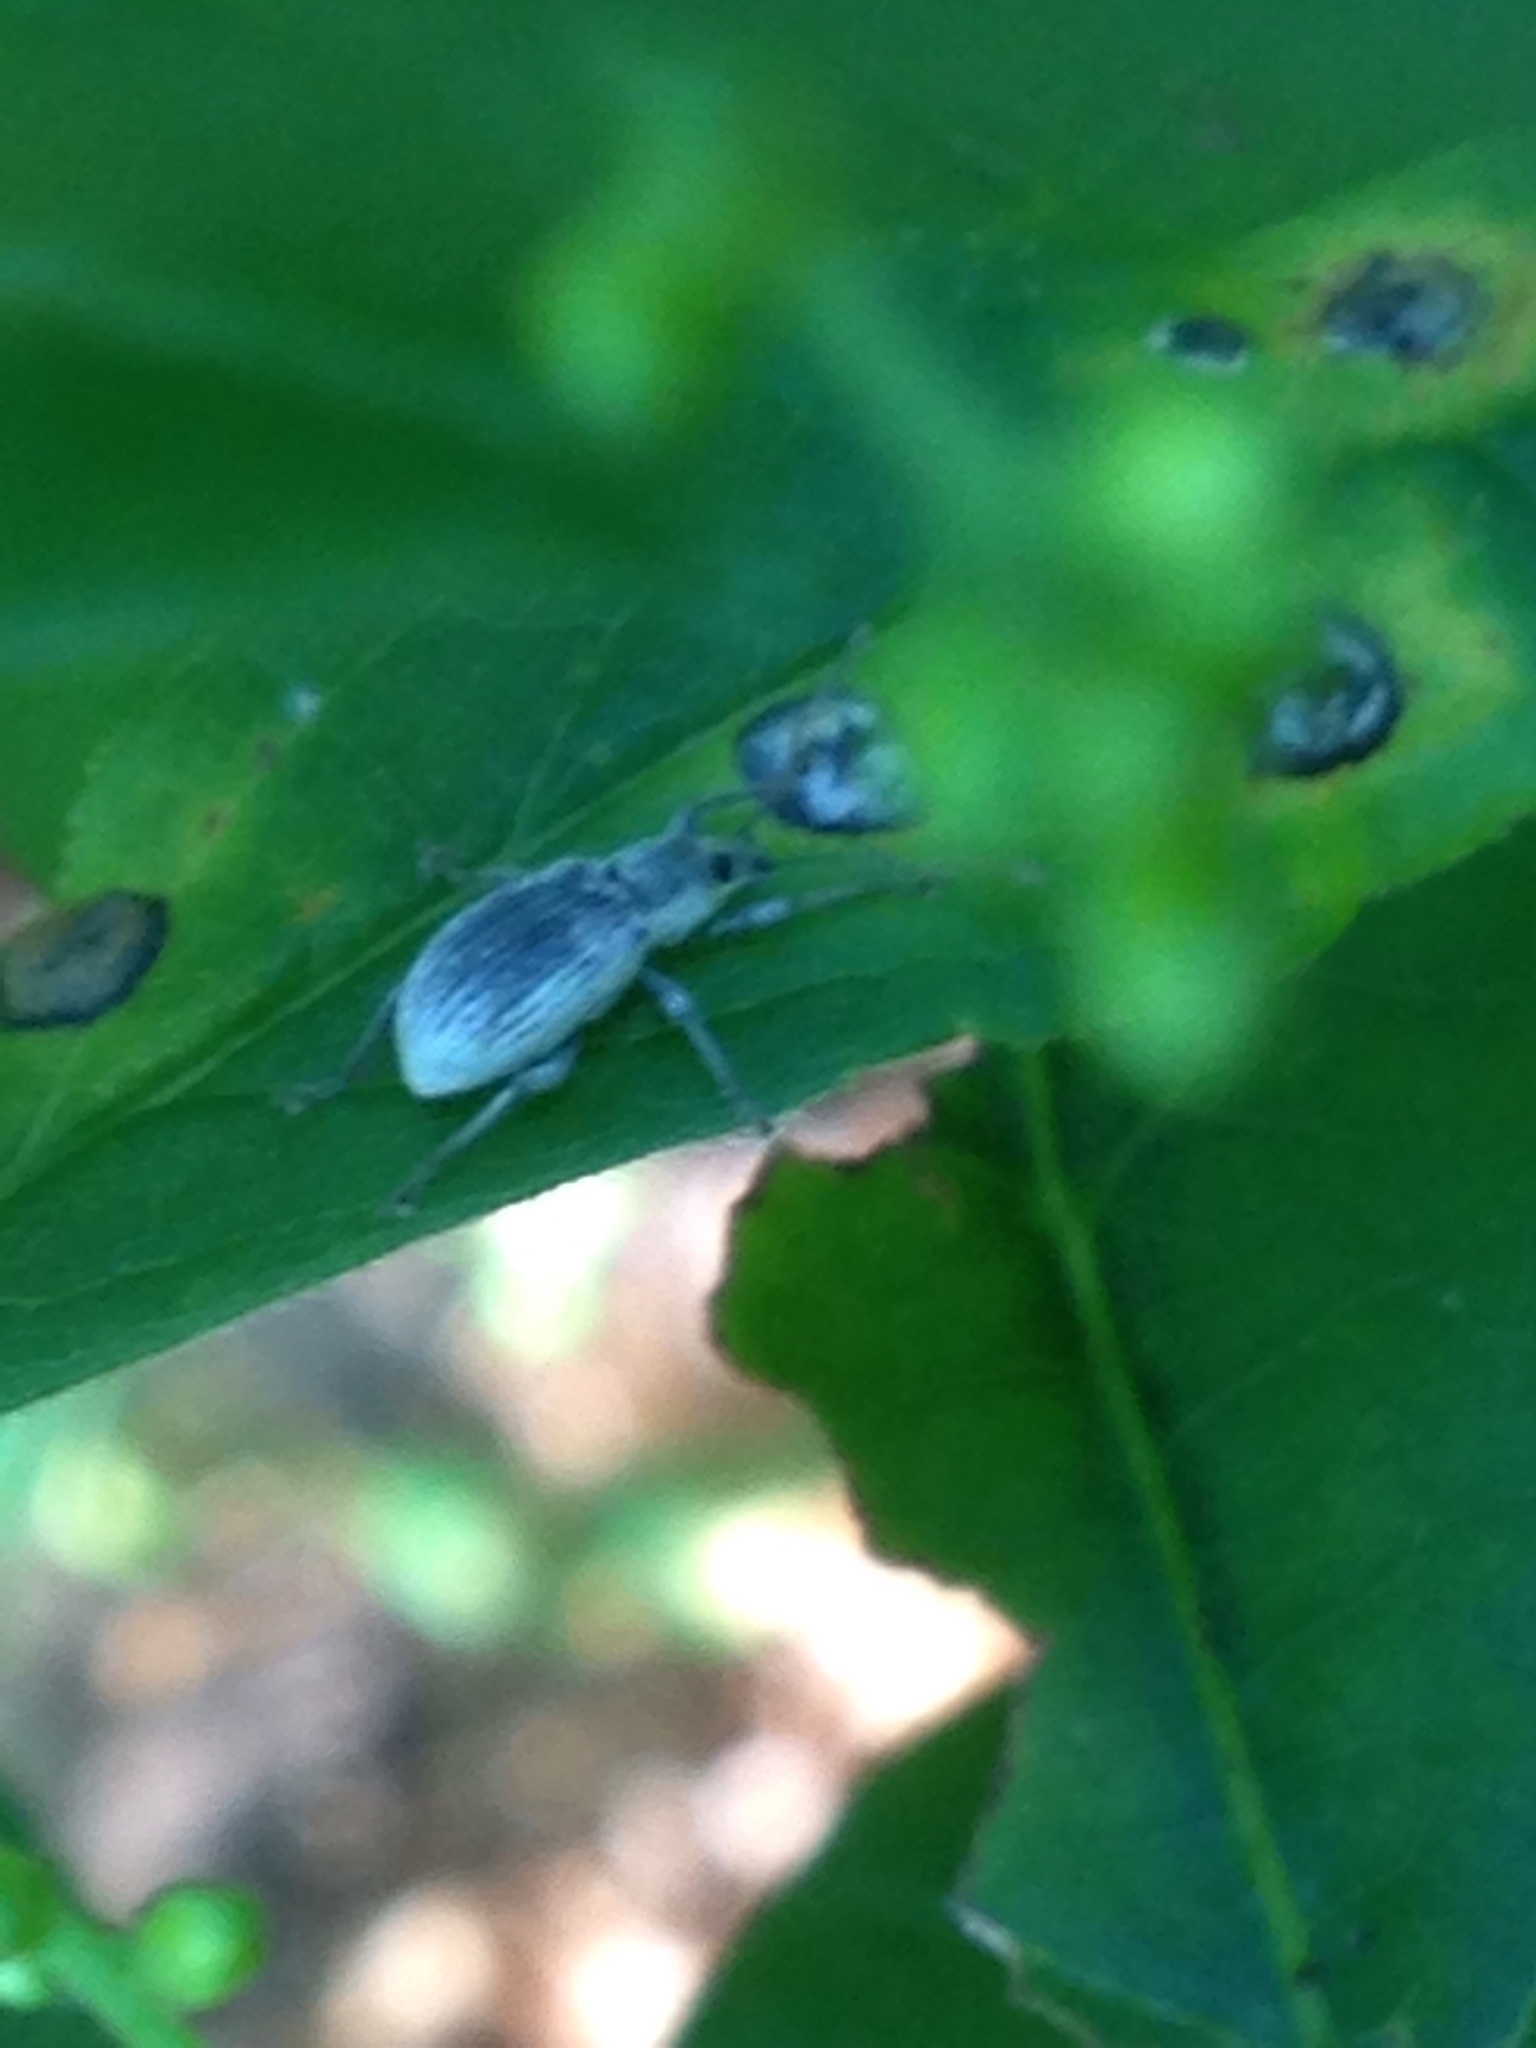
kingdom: Animalia
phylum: Arthropoda
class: Insecta
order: Coleoptera
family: Curculionidae
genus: Cyrtepistomus
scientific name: Cyrtepistomus castaneus
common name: Weevil
